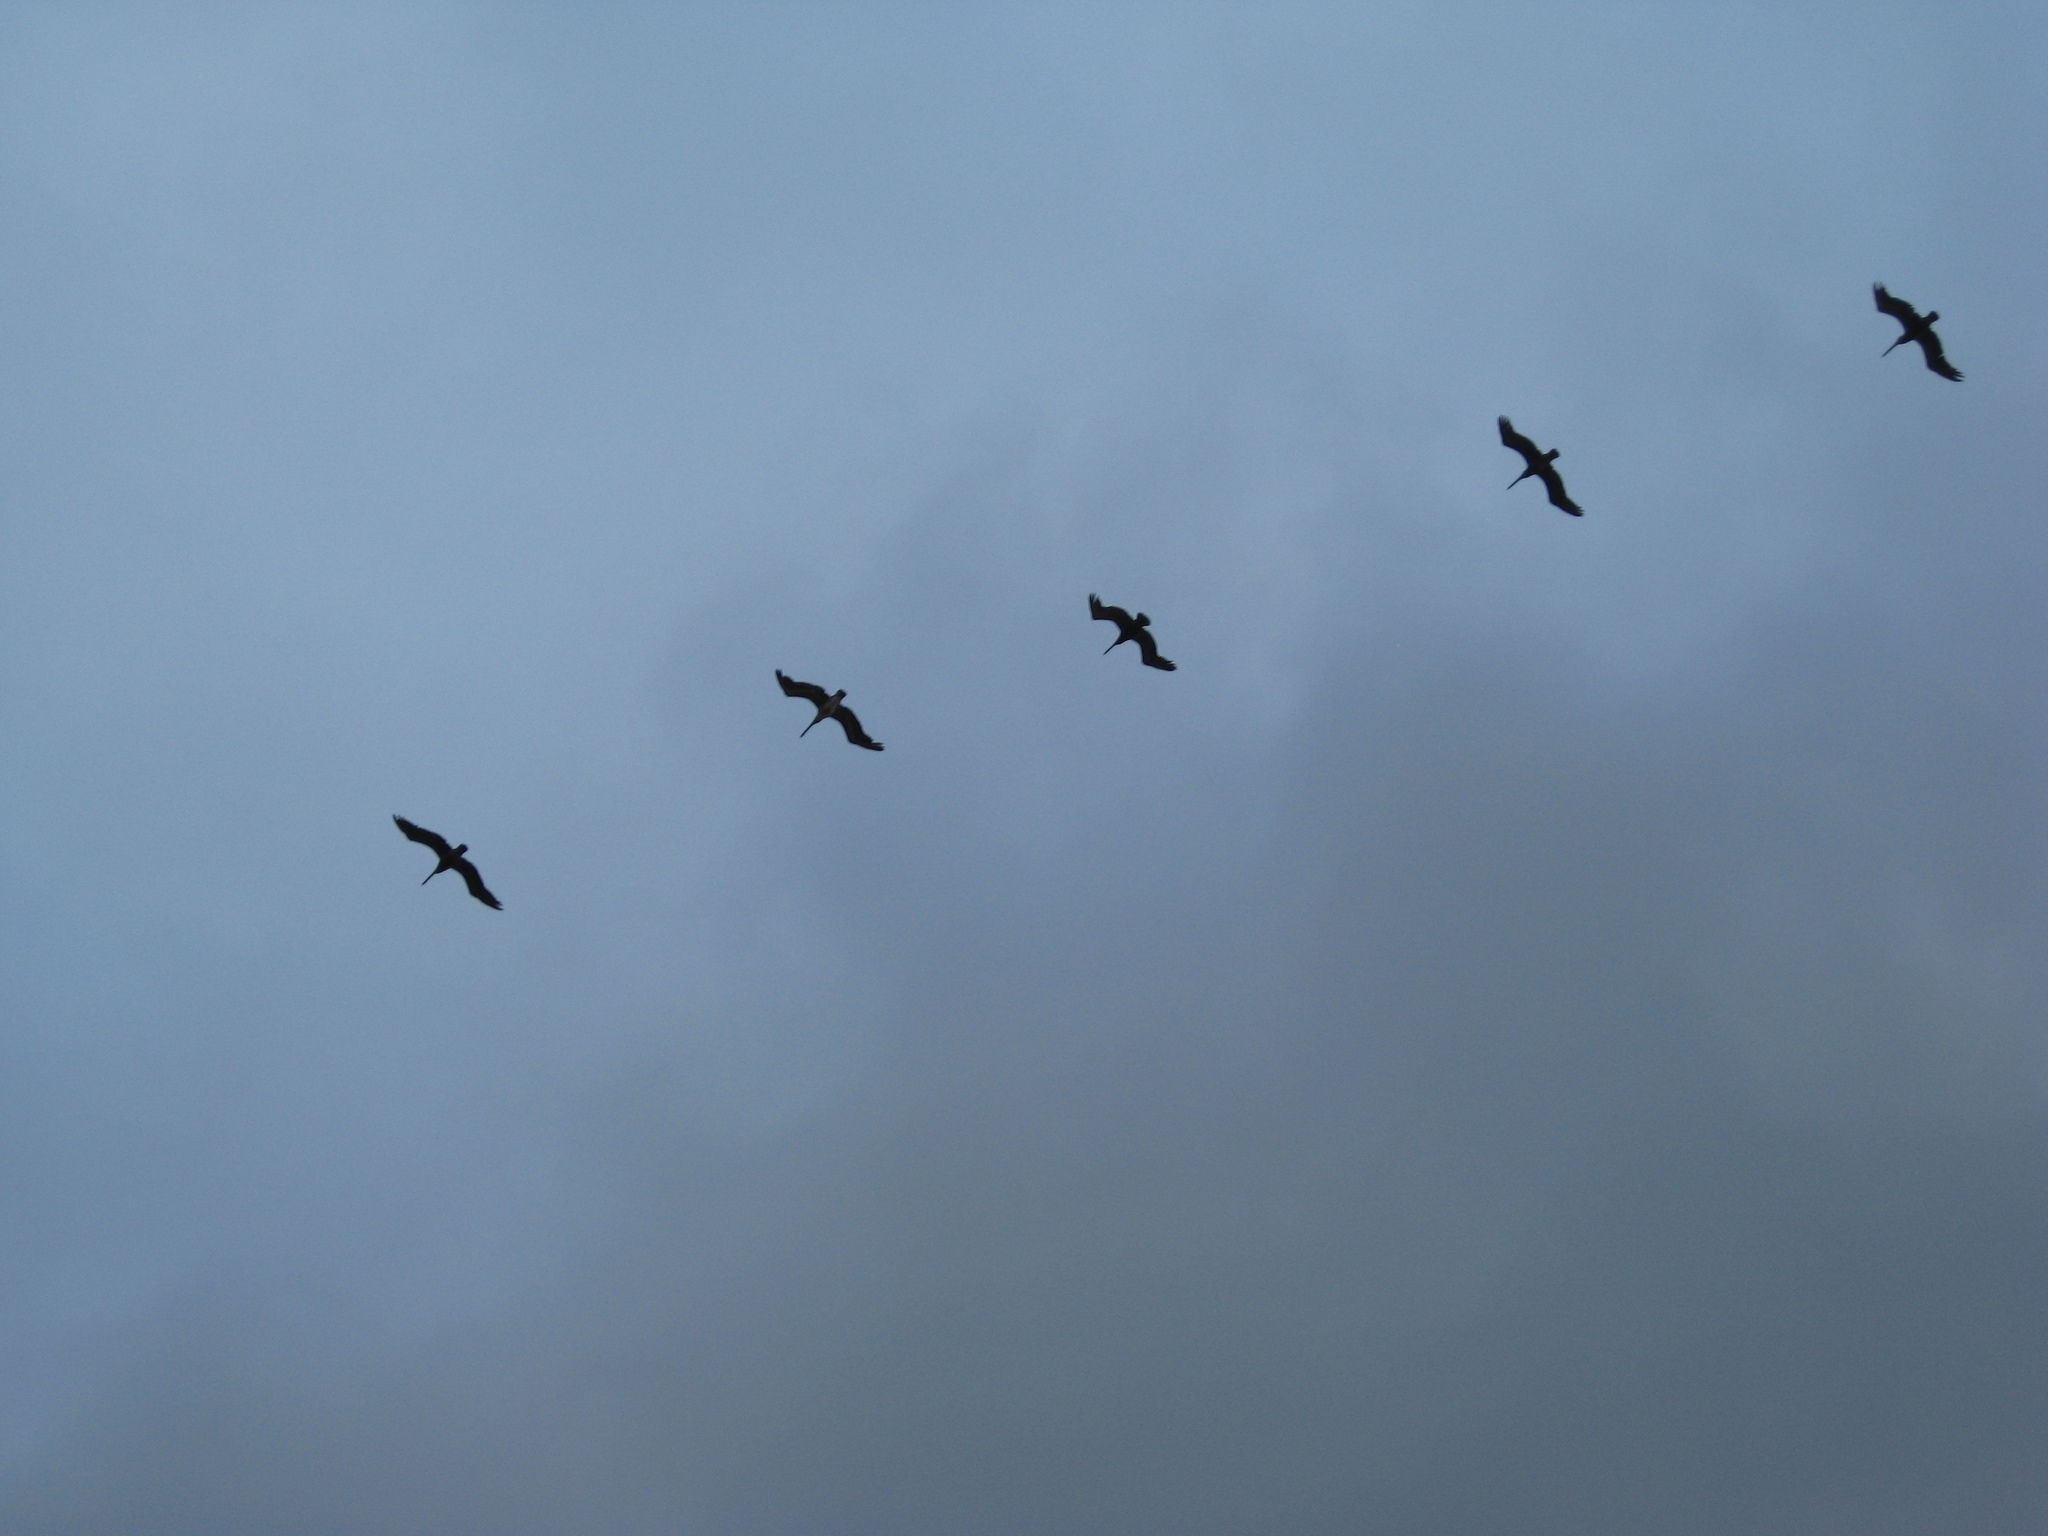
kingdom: Animalia
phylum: Chordata
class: Aves
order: Pelecaniformes
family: Pelecanidae
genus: Pelecanus
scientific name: Pelecanus occidentalis
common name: Brown pelican
